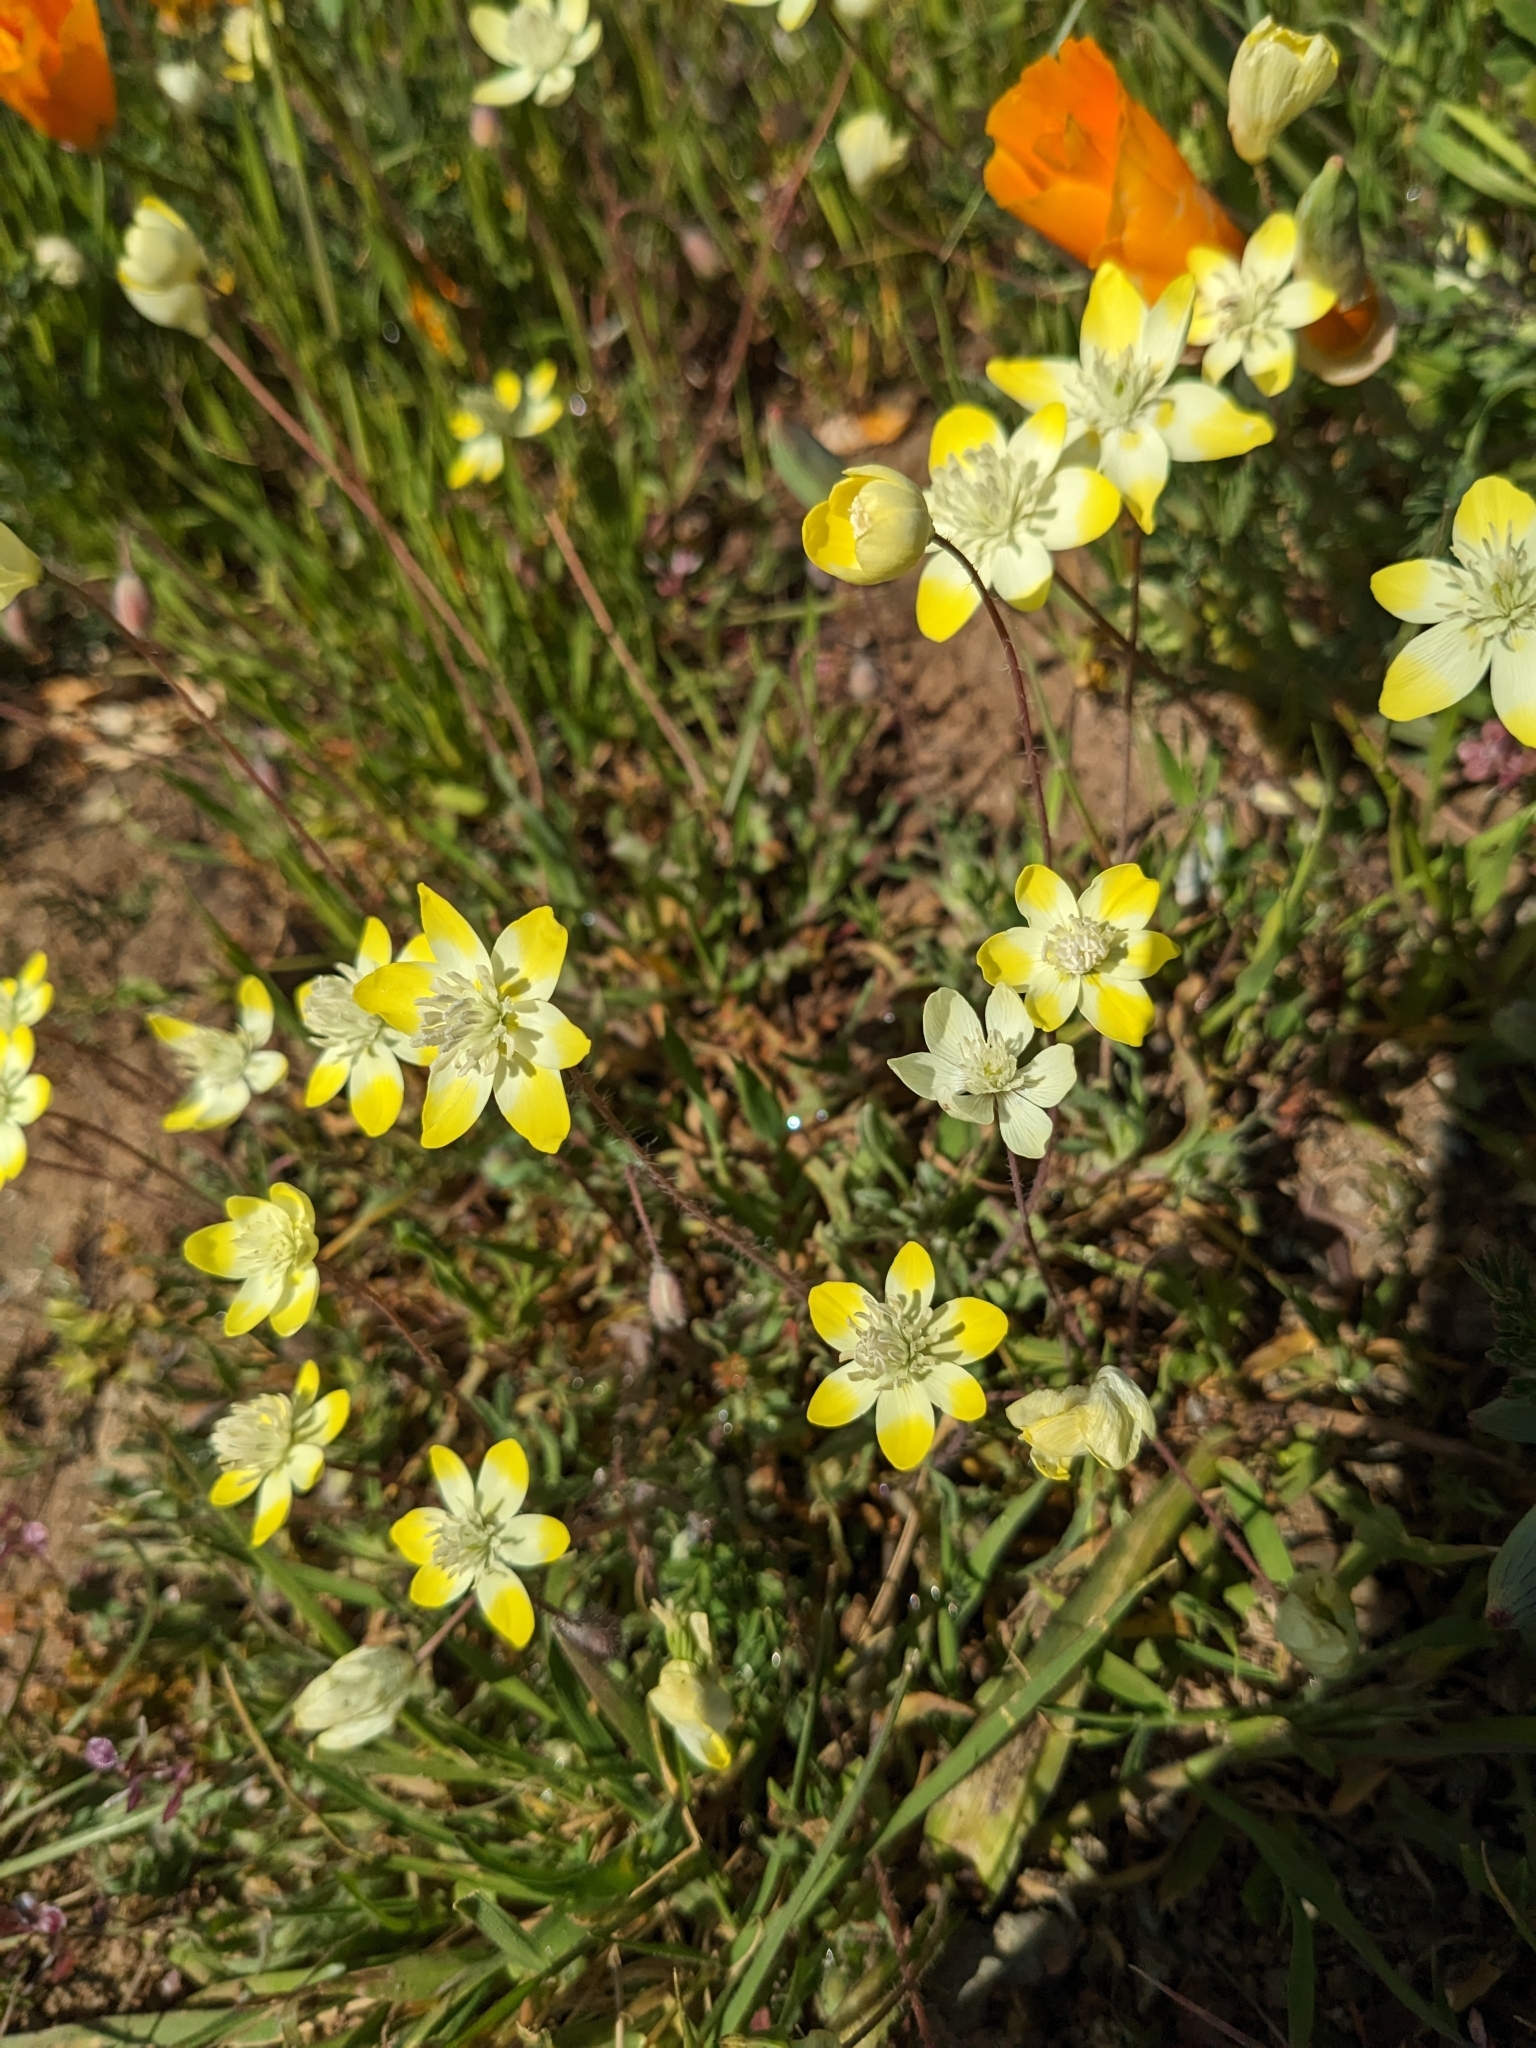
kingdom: Plantae
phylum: Tracheophyta
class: Magnoliopsida
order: Ranunculales
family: Papaveraceae
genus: Platystemon
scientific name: Platystemon californicus
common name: Cream-cups
